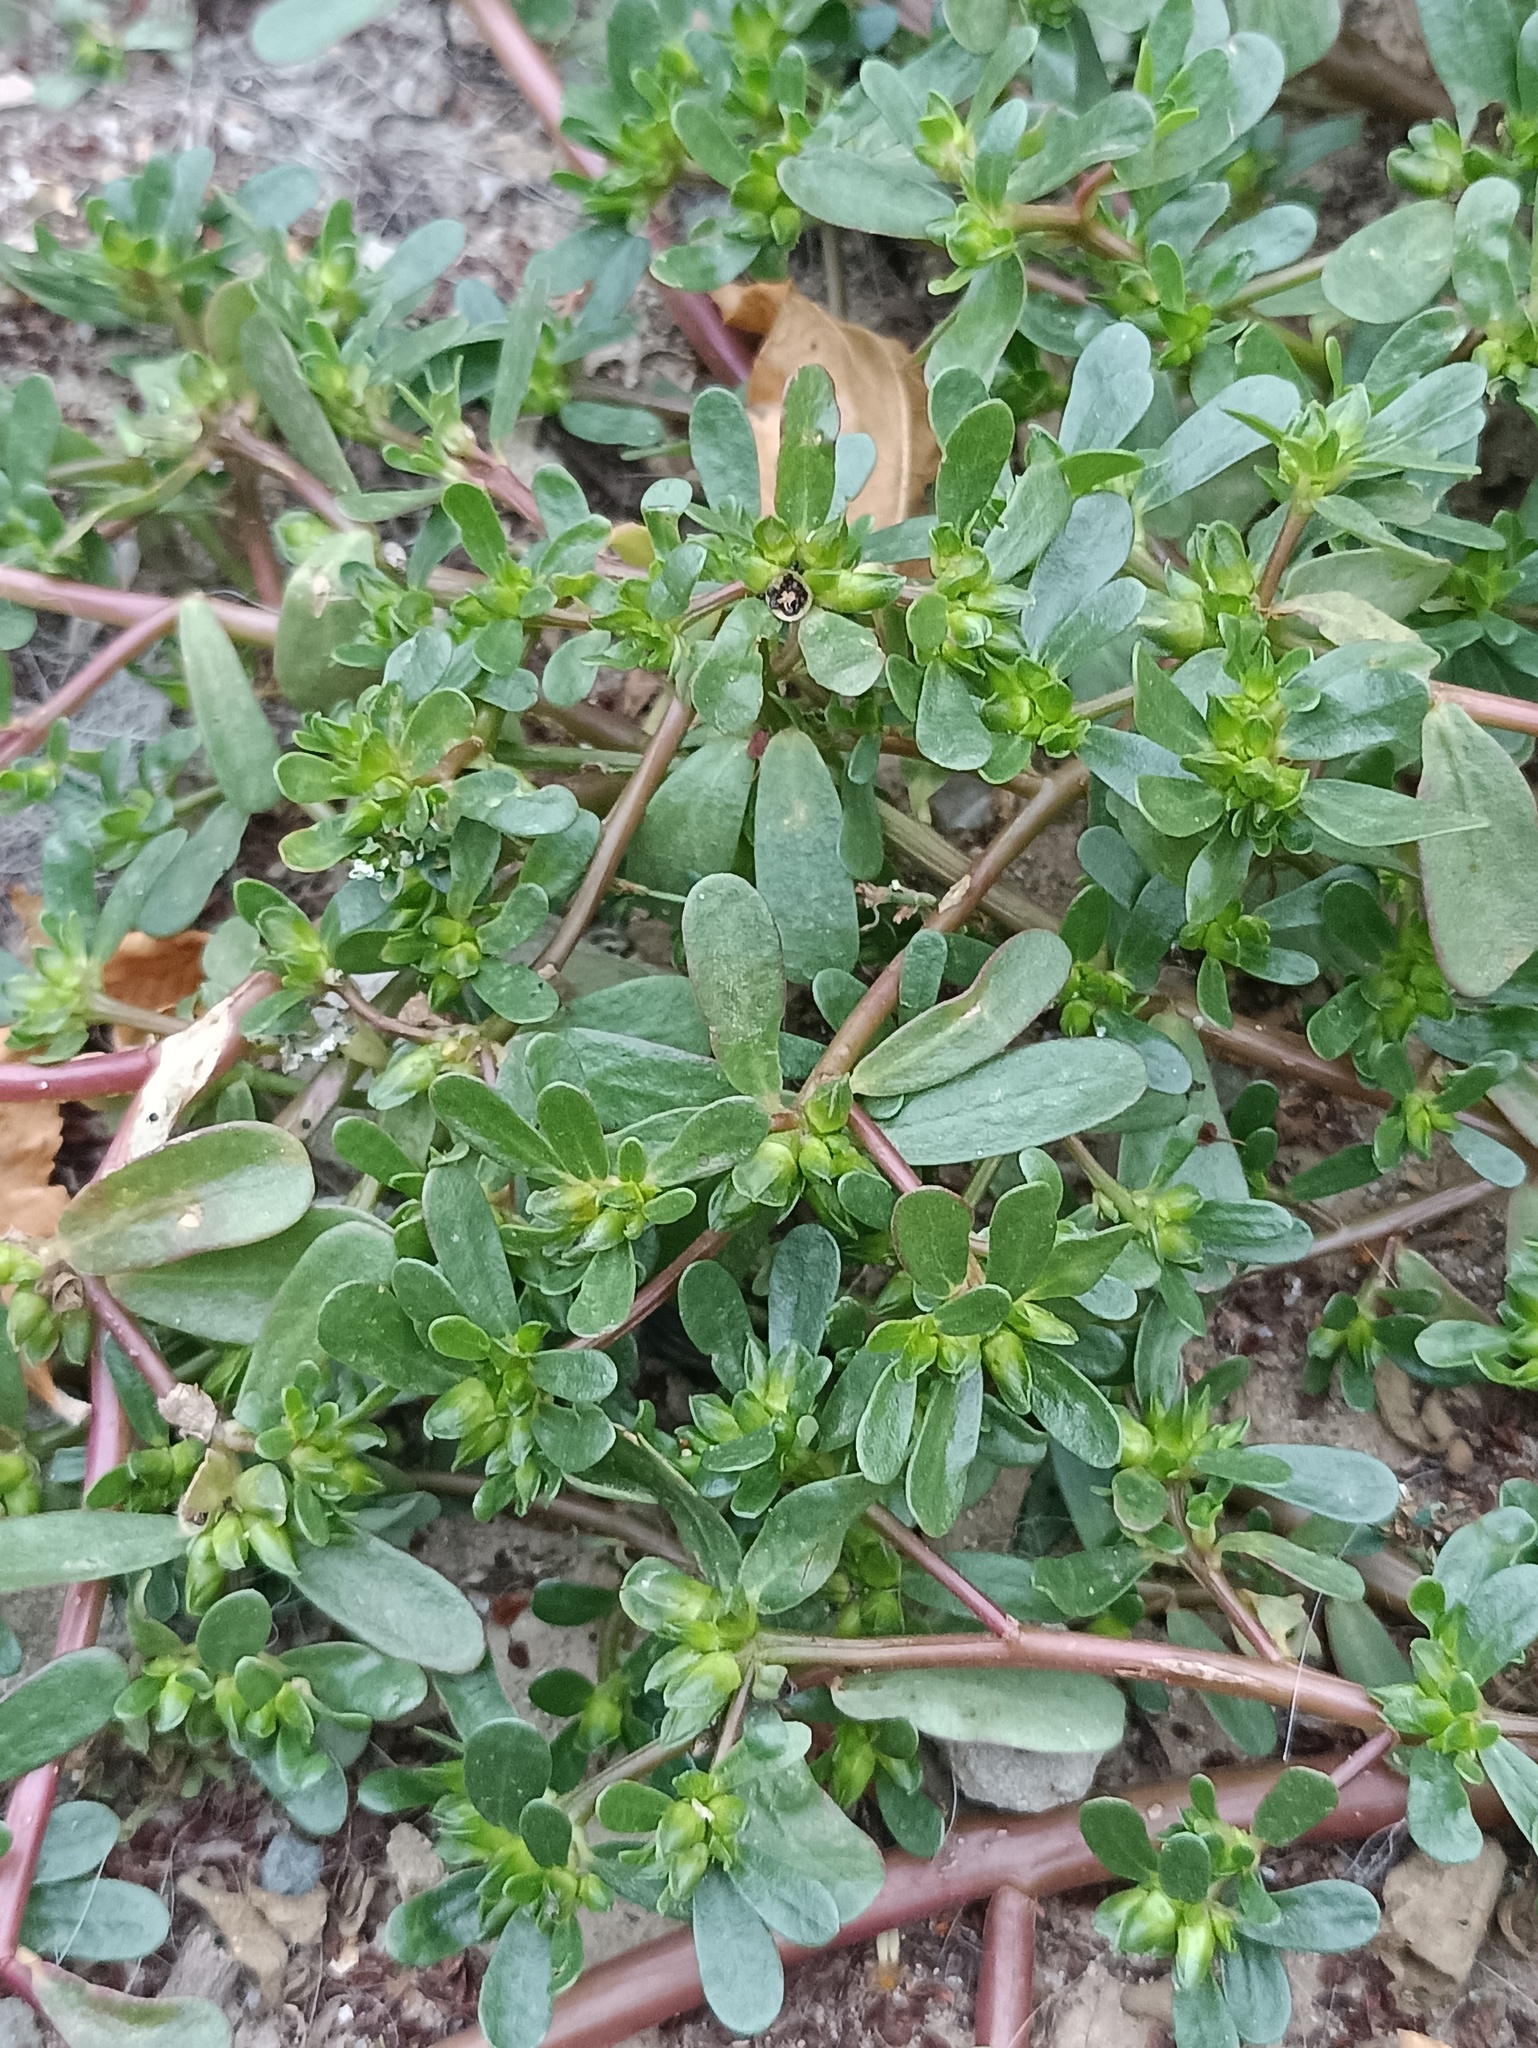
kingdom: Plantae
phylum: Tracheophyta
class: Magnoliopsida
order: Caryophyllales
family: Portulacaceae
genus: Portulaca
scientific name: Portulaca oleracea
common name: Common purslane
